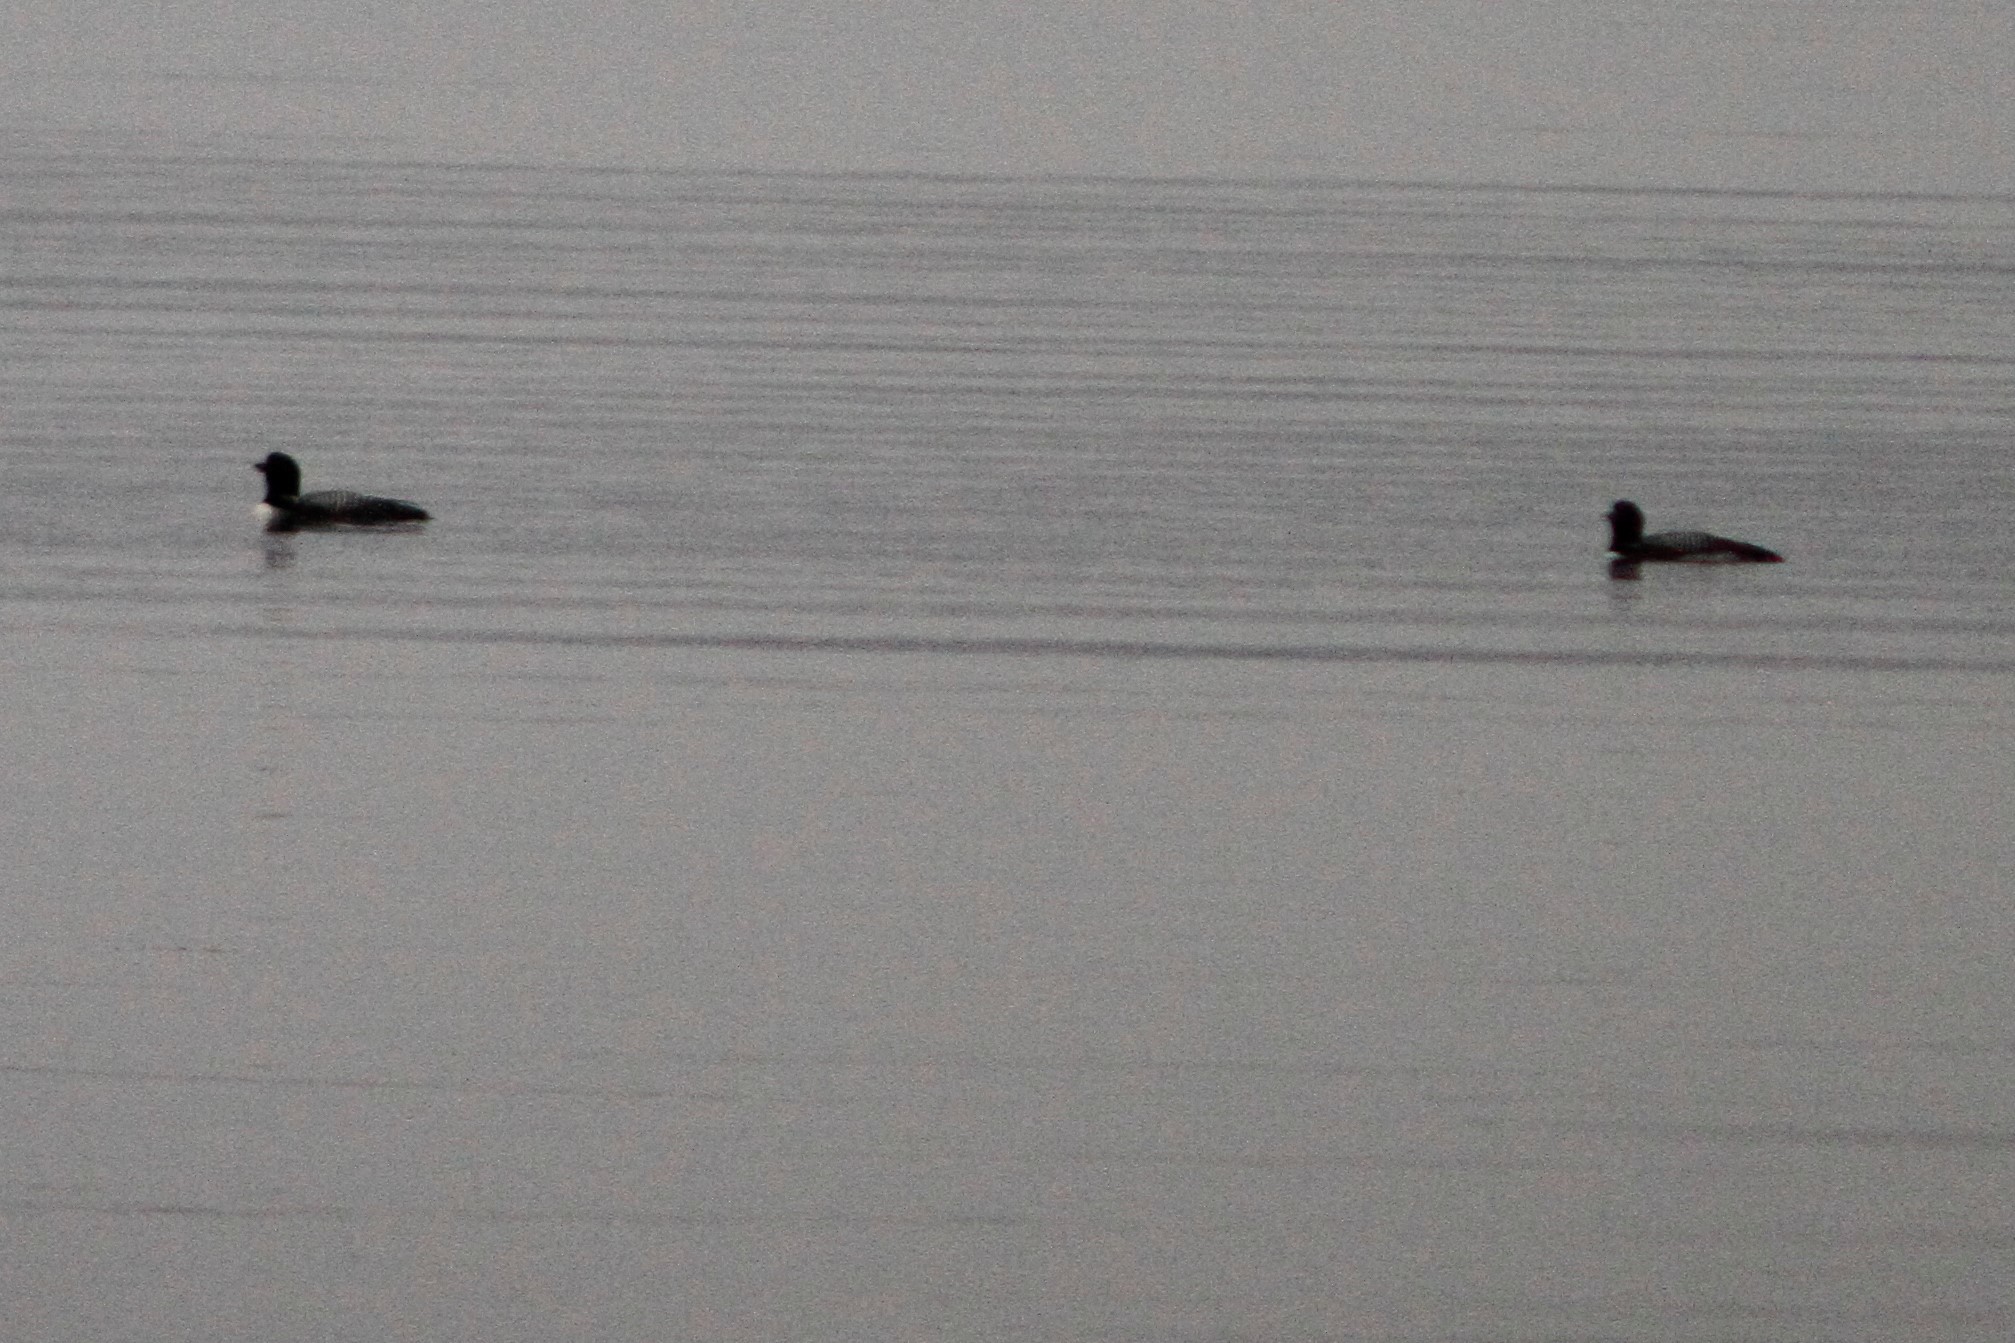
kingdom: Animalia
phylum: Chordata
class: Aves
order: Gaviiformes
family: Gaviidae
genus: Gavia
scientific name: Gavia immer
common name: Common loon
